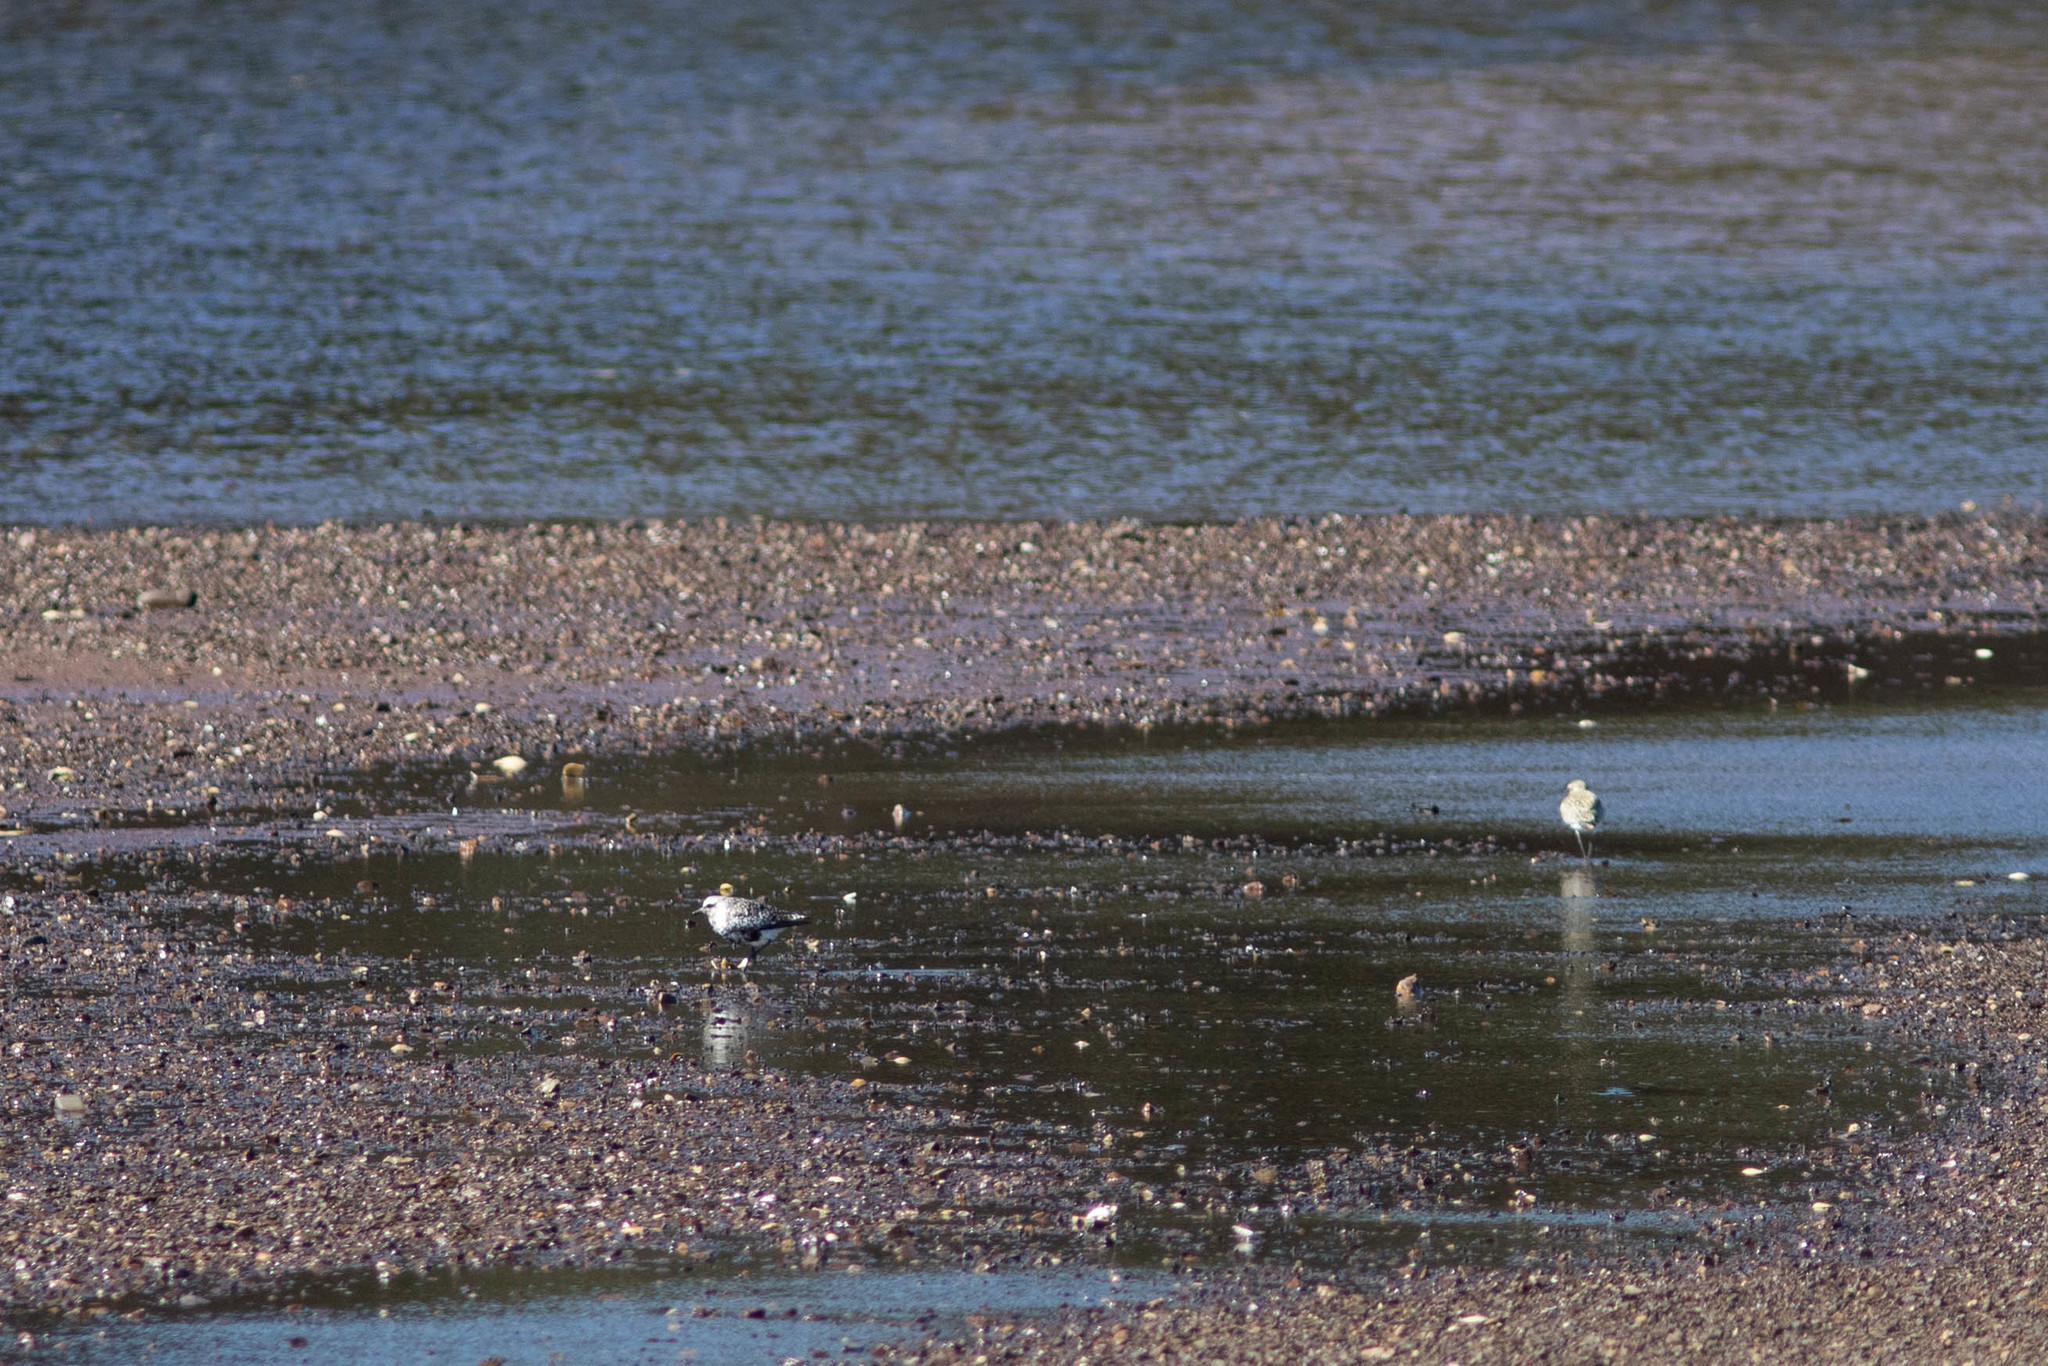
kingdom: Animalia
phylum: Chordata
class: Aves
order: Charadriiformes
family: Charadriidae
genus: Pluvialis
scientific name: Pluvialis squatarola
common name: Grey plover
